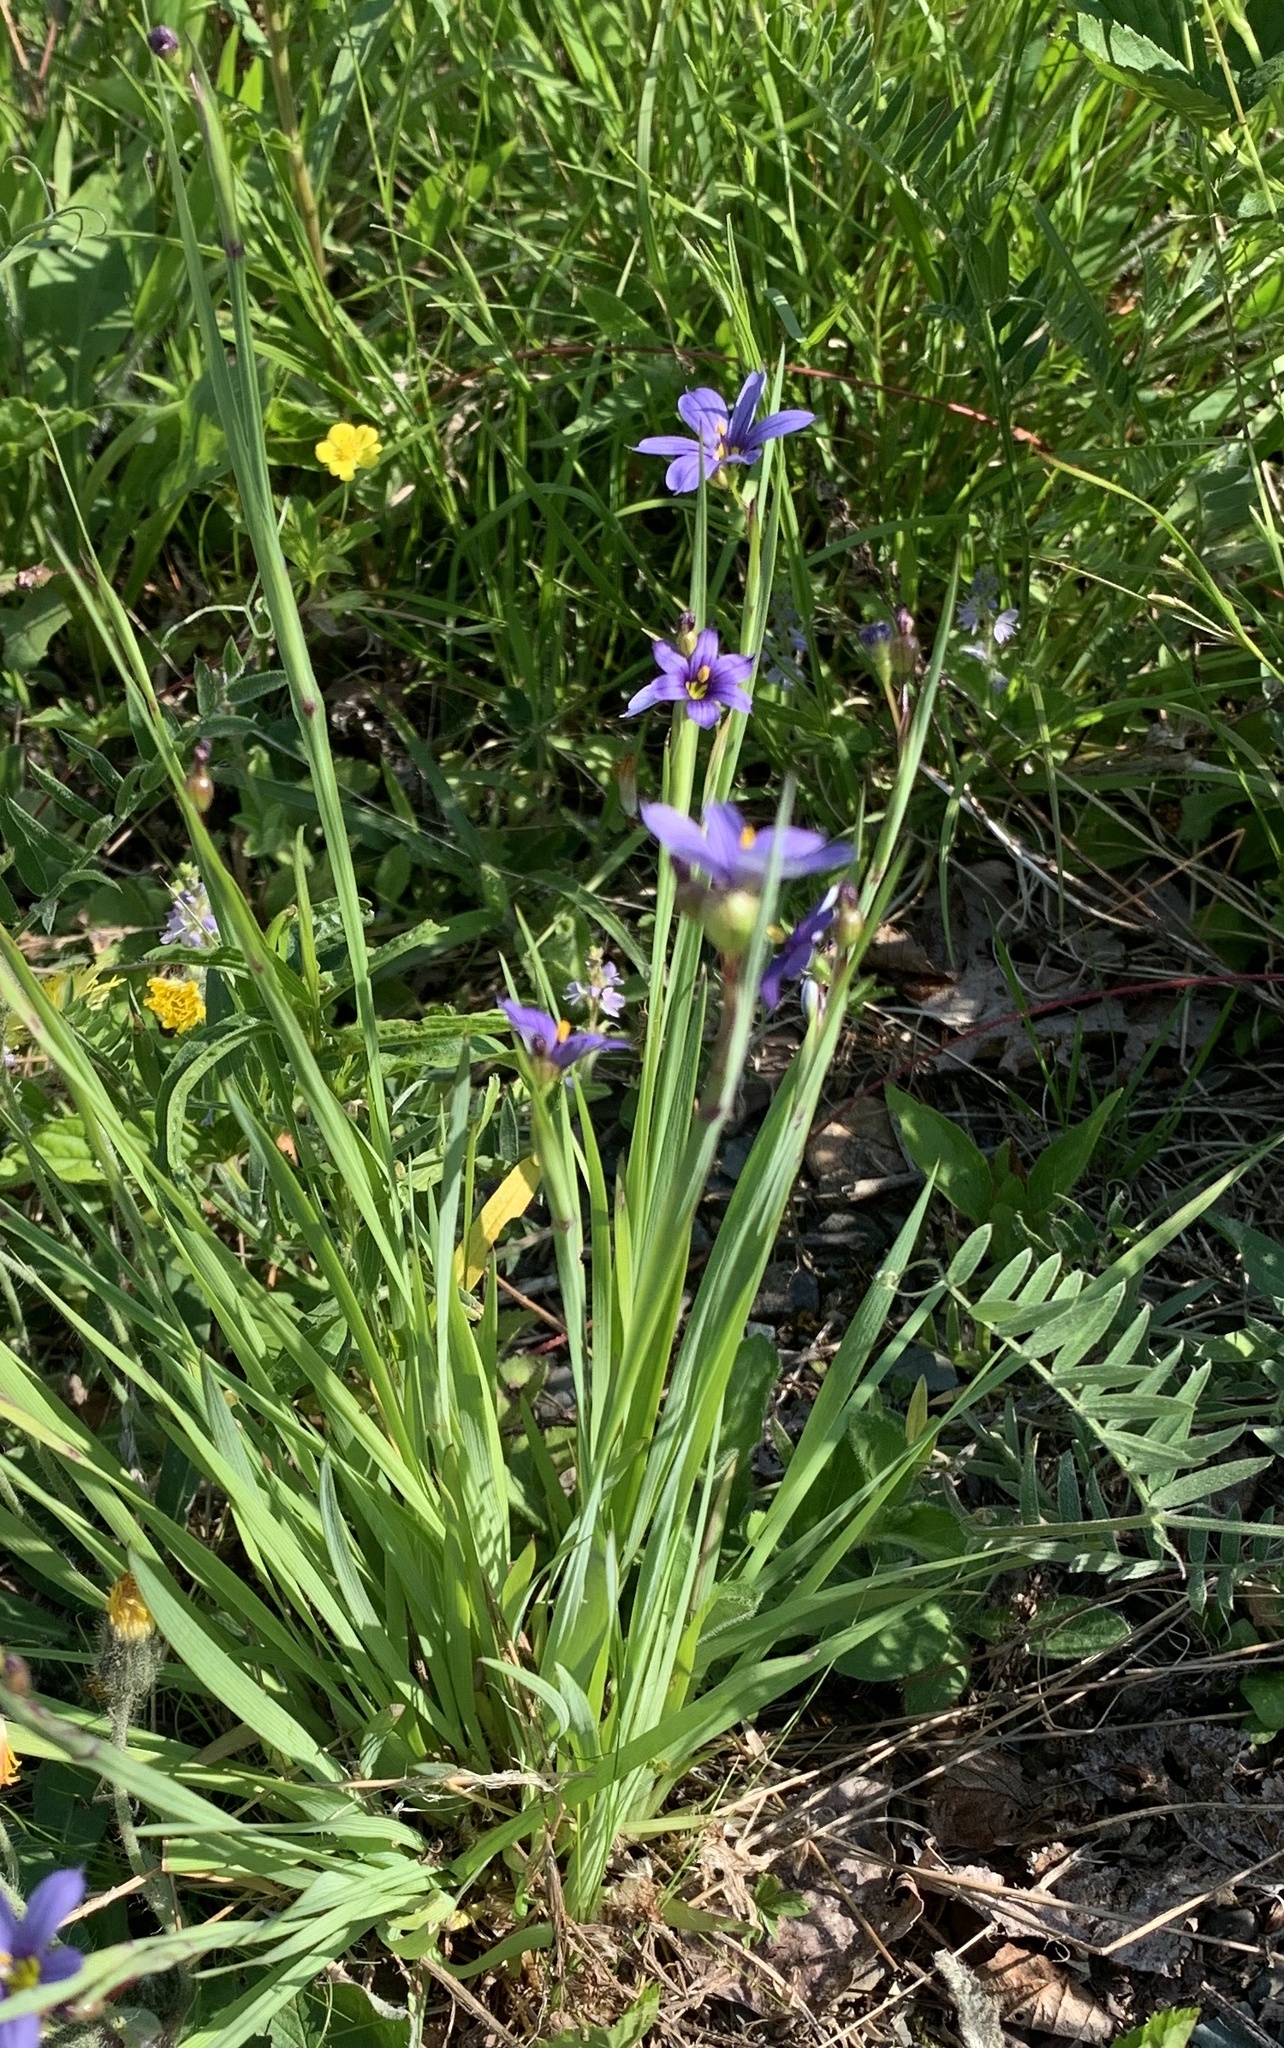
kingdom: Plantae
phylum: Tracheophyta
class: Liliopsida
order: Asparagales
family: Iridaceae
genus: Sisyrinchium
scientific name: Sisyrinchium montanum
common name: American blue-eyed-grass
